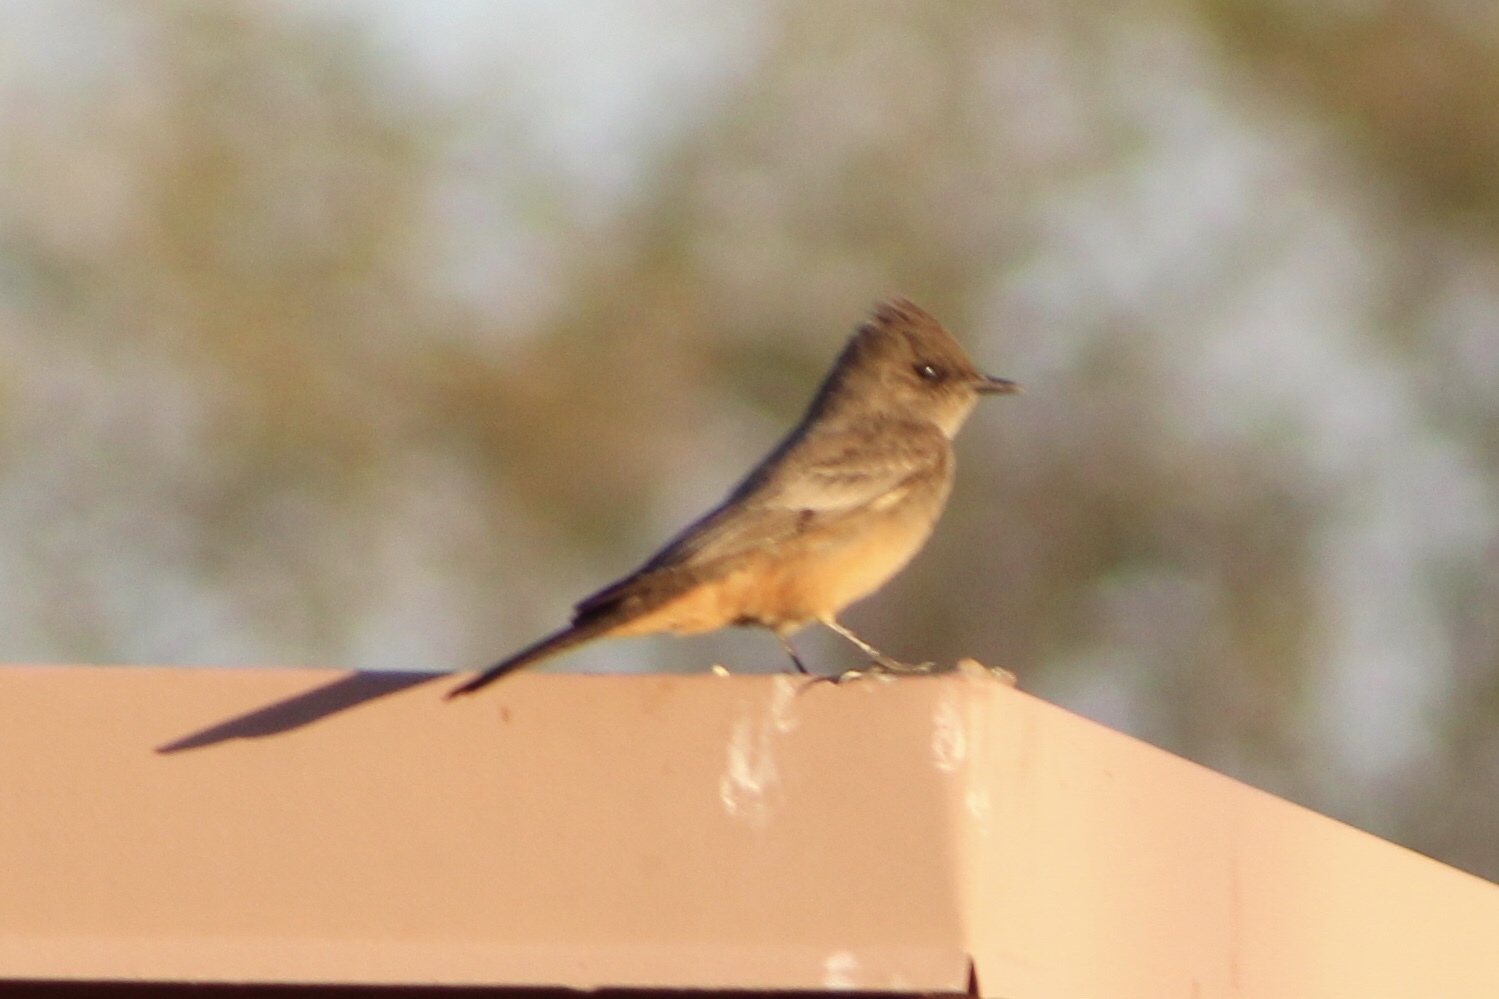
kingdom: Animalia
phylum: Chordata
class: Aves
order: Passeriformes
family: Tyrannidae
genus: Sayornis
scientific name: Sayornis saya
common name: Say's phoebe
